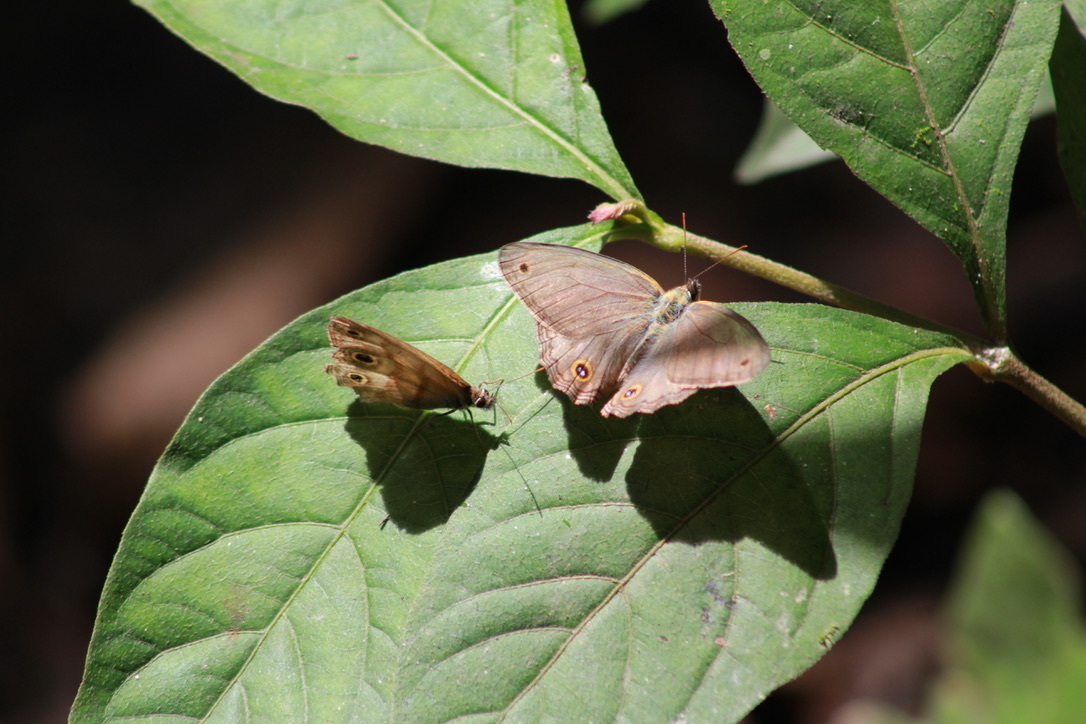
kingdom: Animalia
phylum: Arthropoda
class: Insecta
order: Lepidoptera
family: Nymphalidae
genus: Argyreuptychia
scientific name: Argyreuptychia penelope
